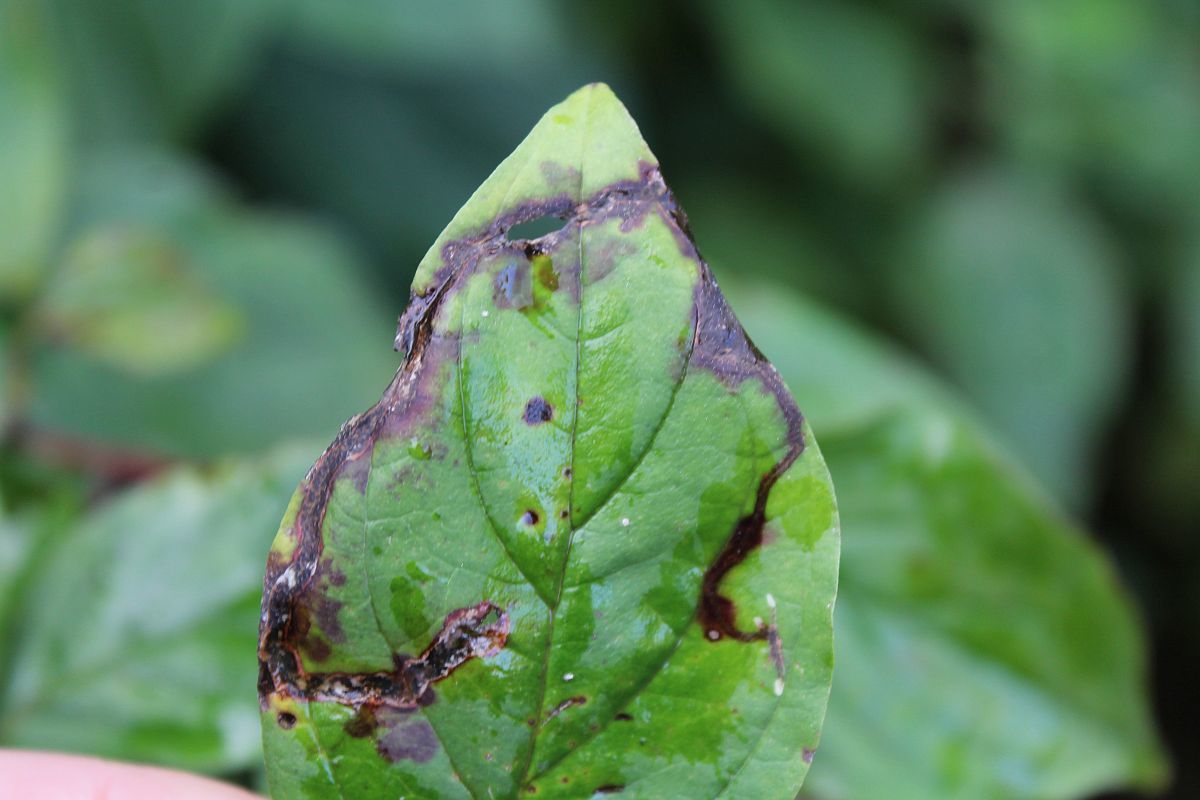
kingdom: Animalia
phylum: Arthropoda
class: Insecta
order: Diptera
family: Agromyzidae
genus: Phytomyza
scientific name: Phytomyza agromyzina
